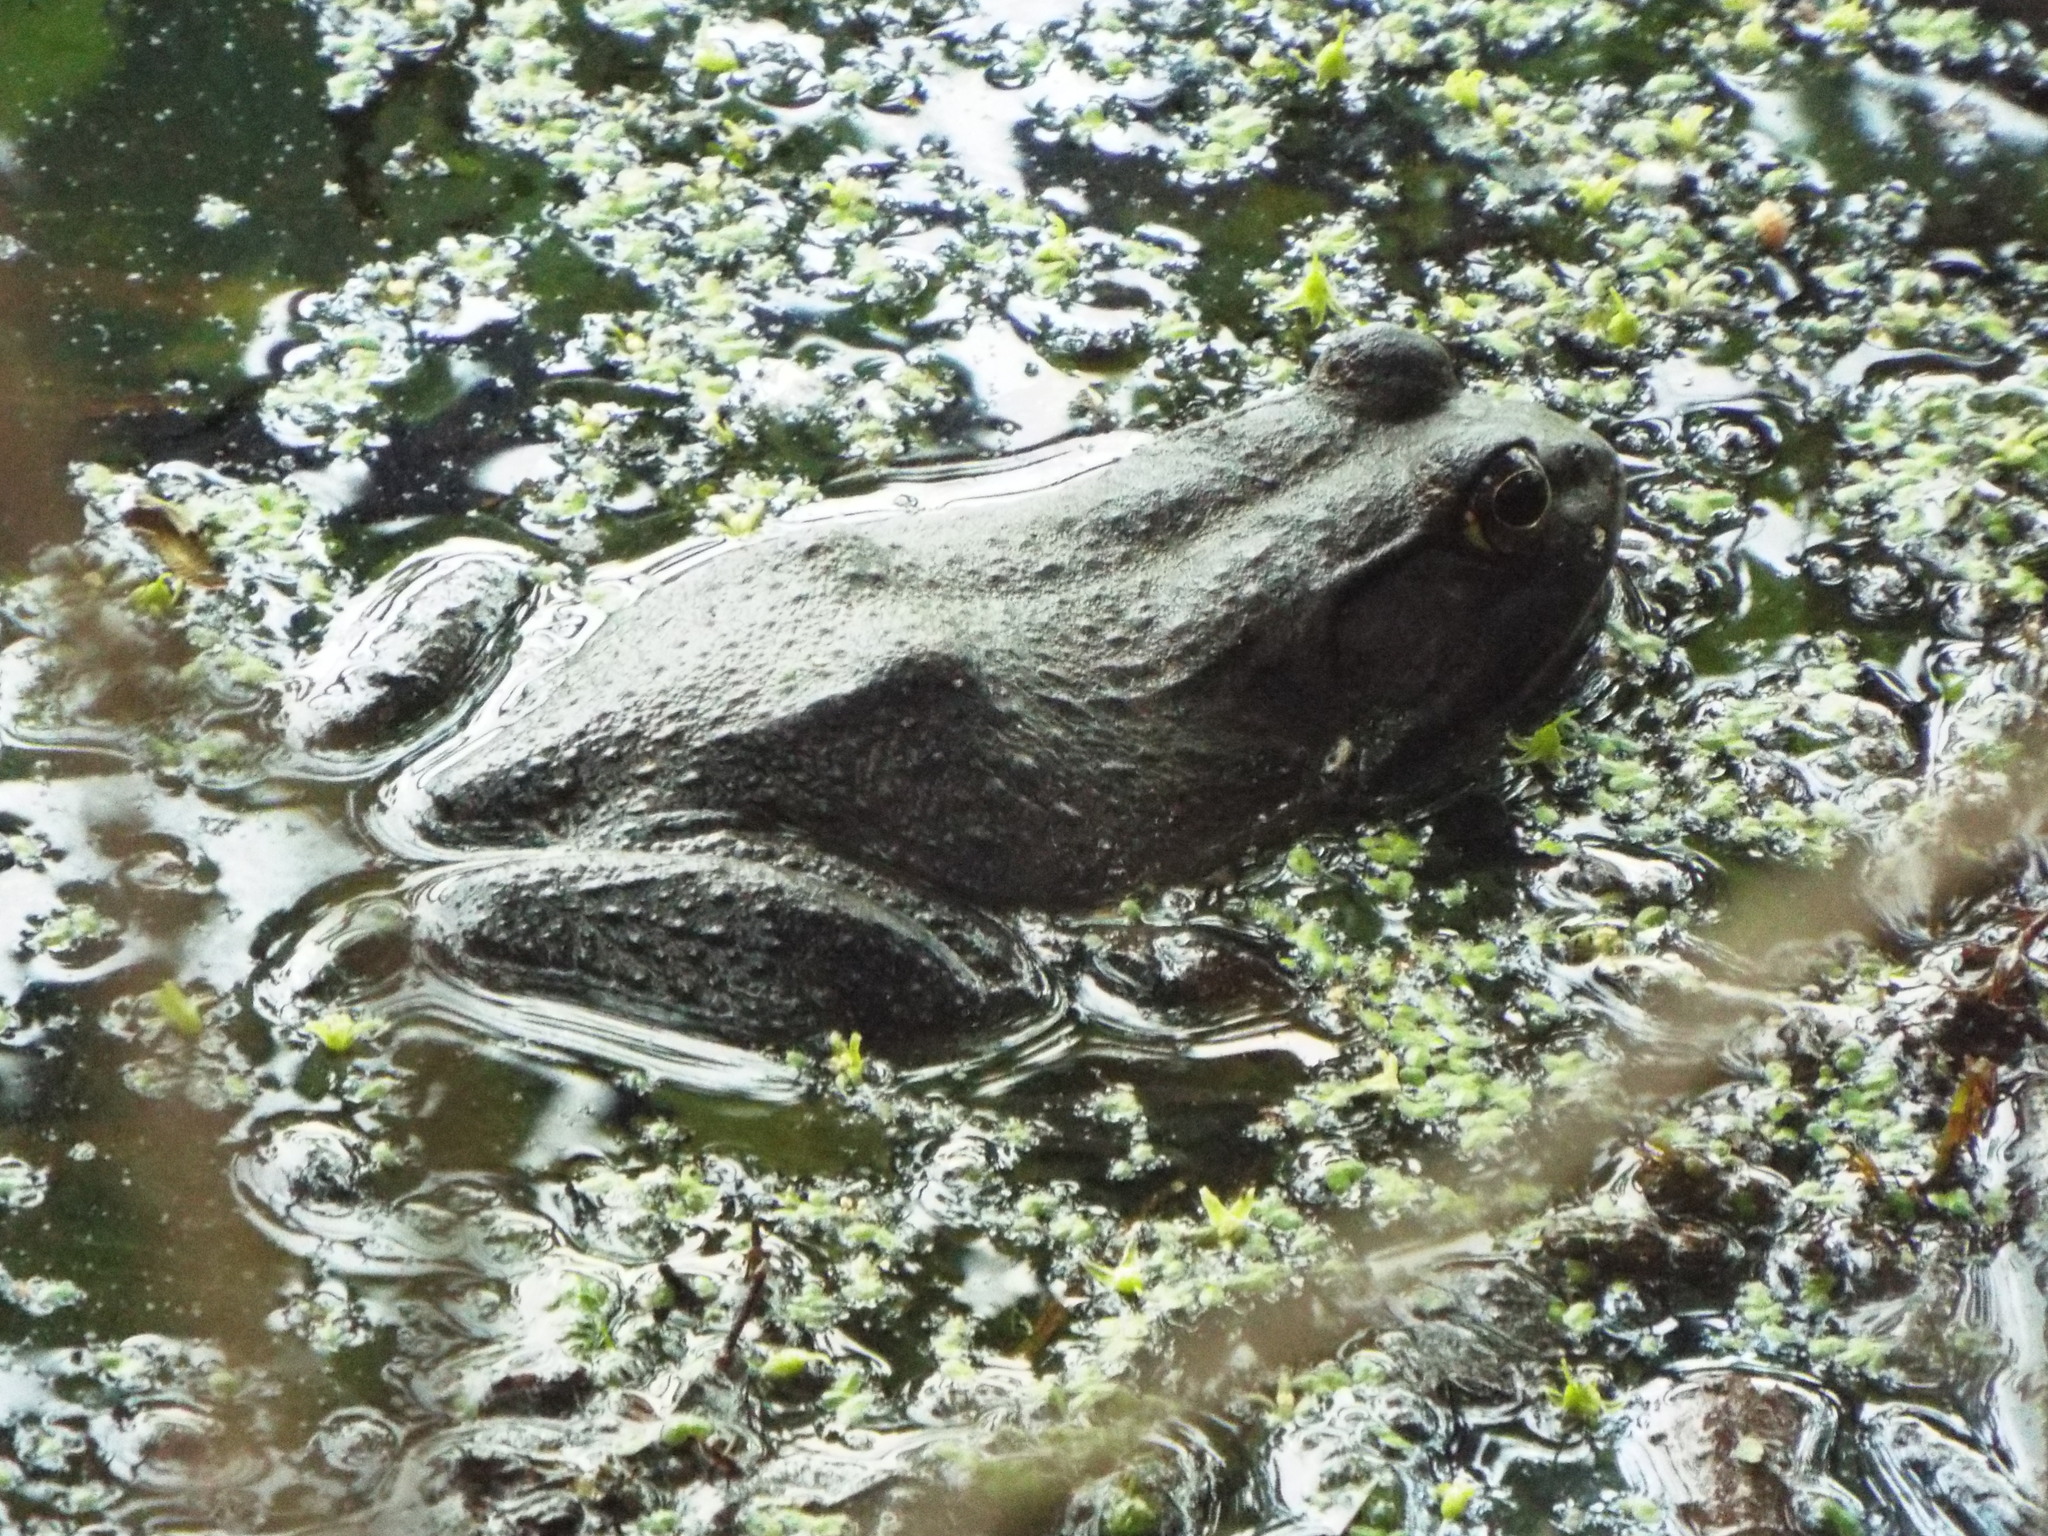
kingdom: Animalia
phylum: Chordata
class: Amphibia
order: Anura
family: Ranidae
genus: Lithobates
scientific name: Lithobates catesbeianus
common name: American bullfrog
